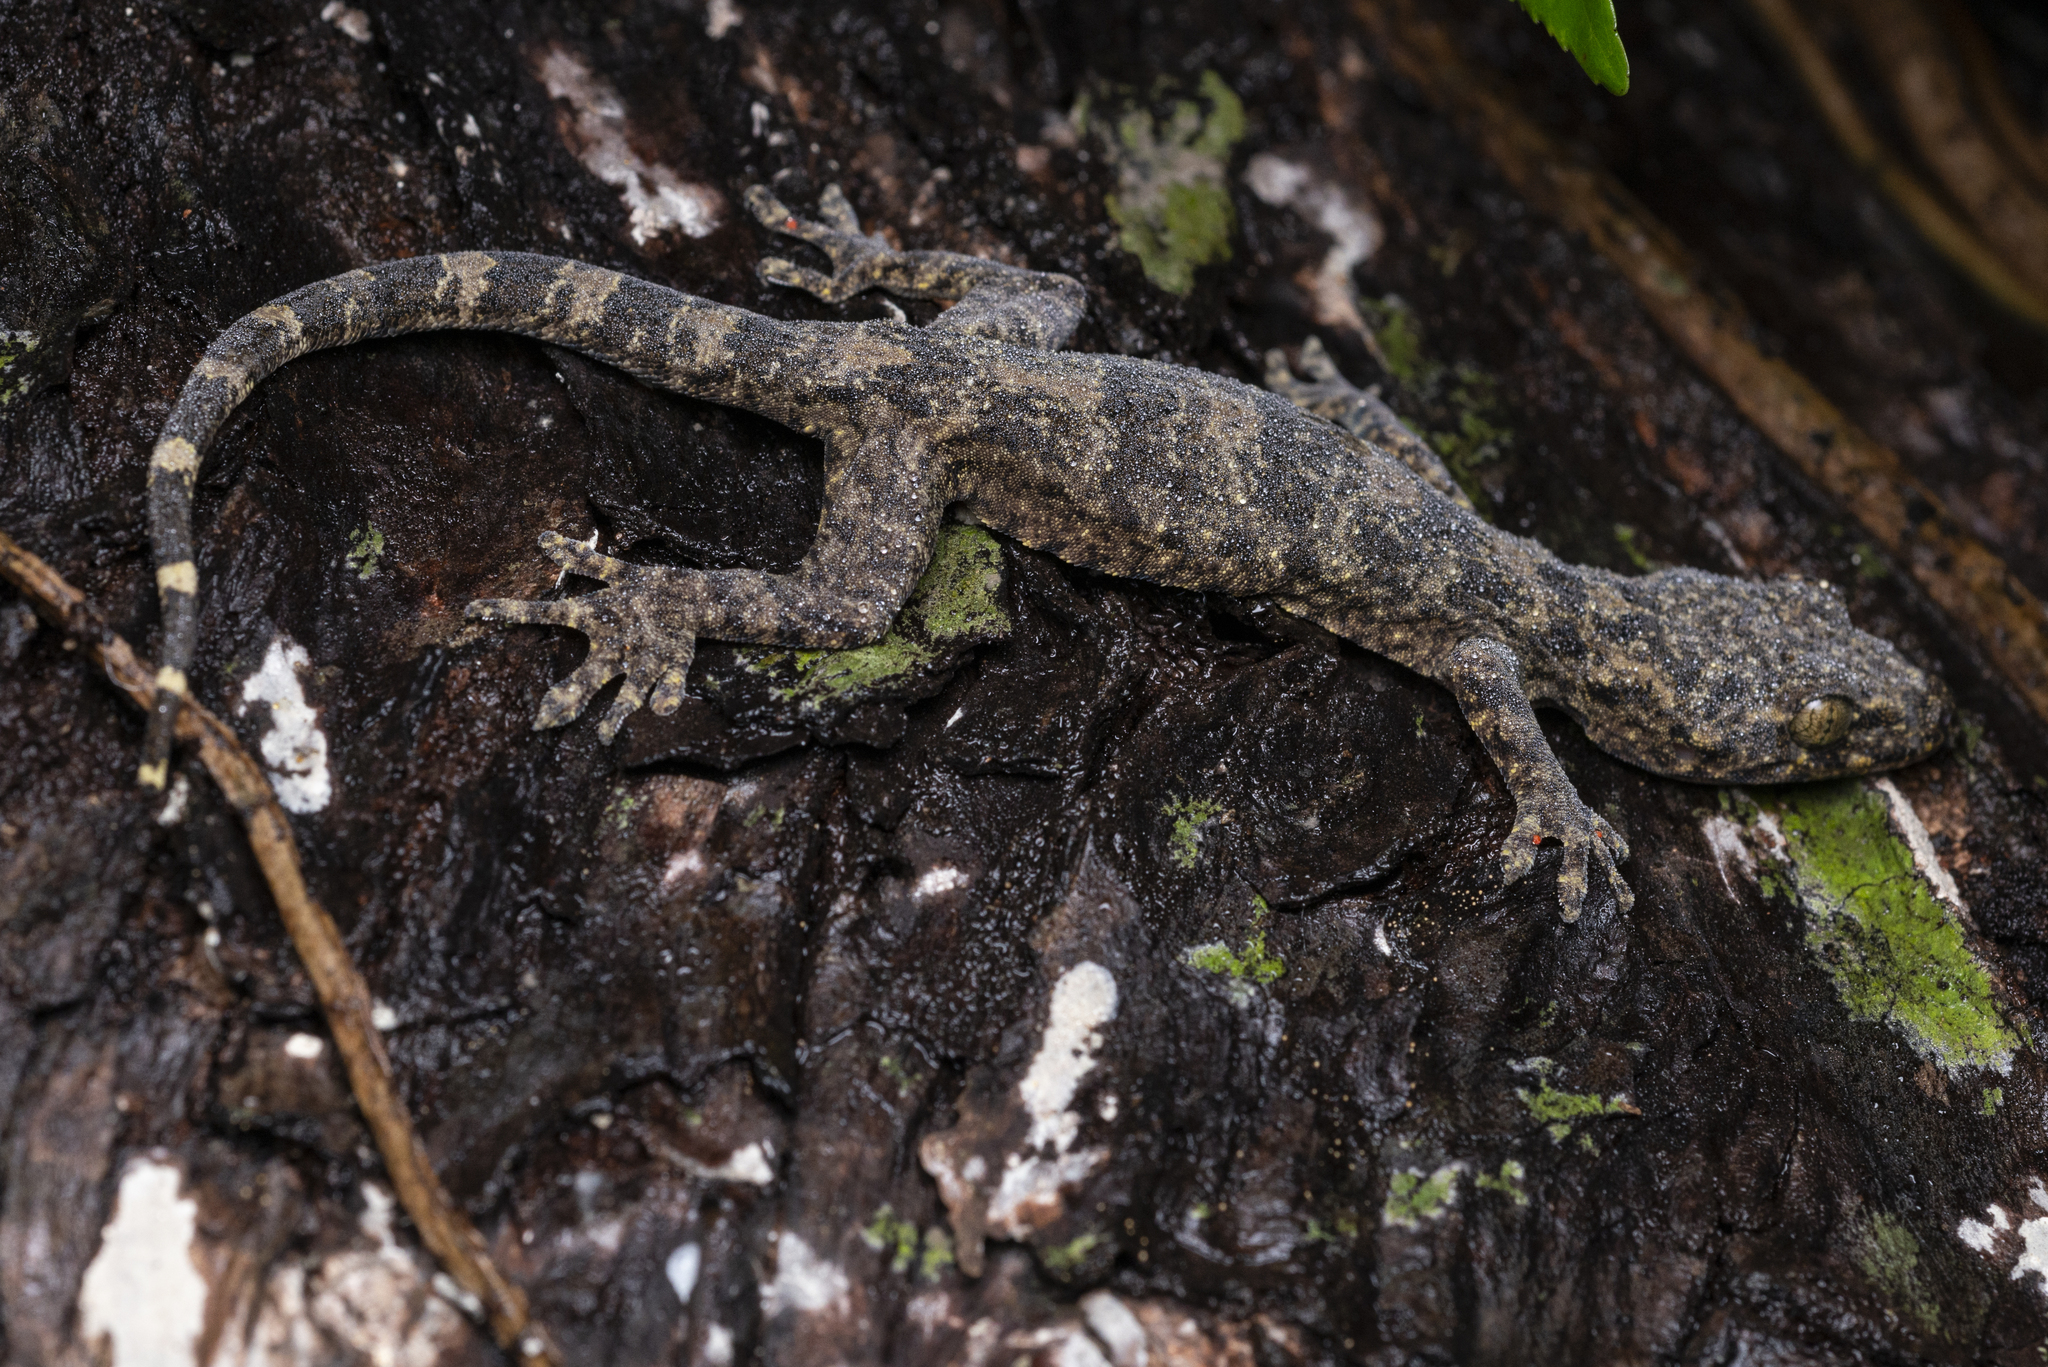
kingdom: Animalia
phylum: Chordata
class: Squamata
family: Gekkonidae
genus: Gekko
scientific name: Gekko chinensis
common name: Gray's chinese gecko
